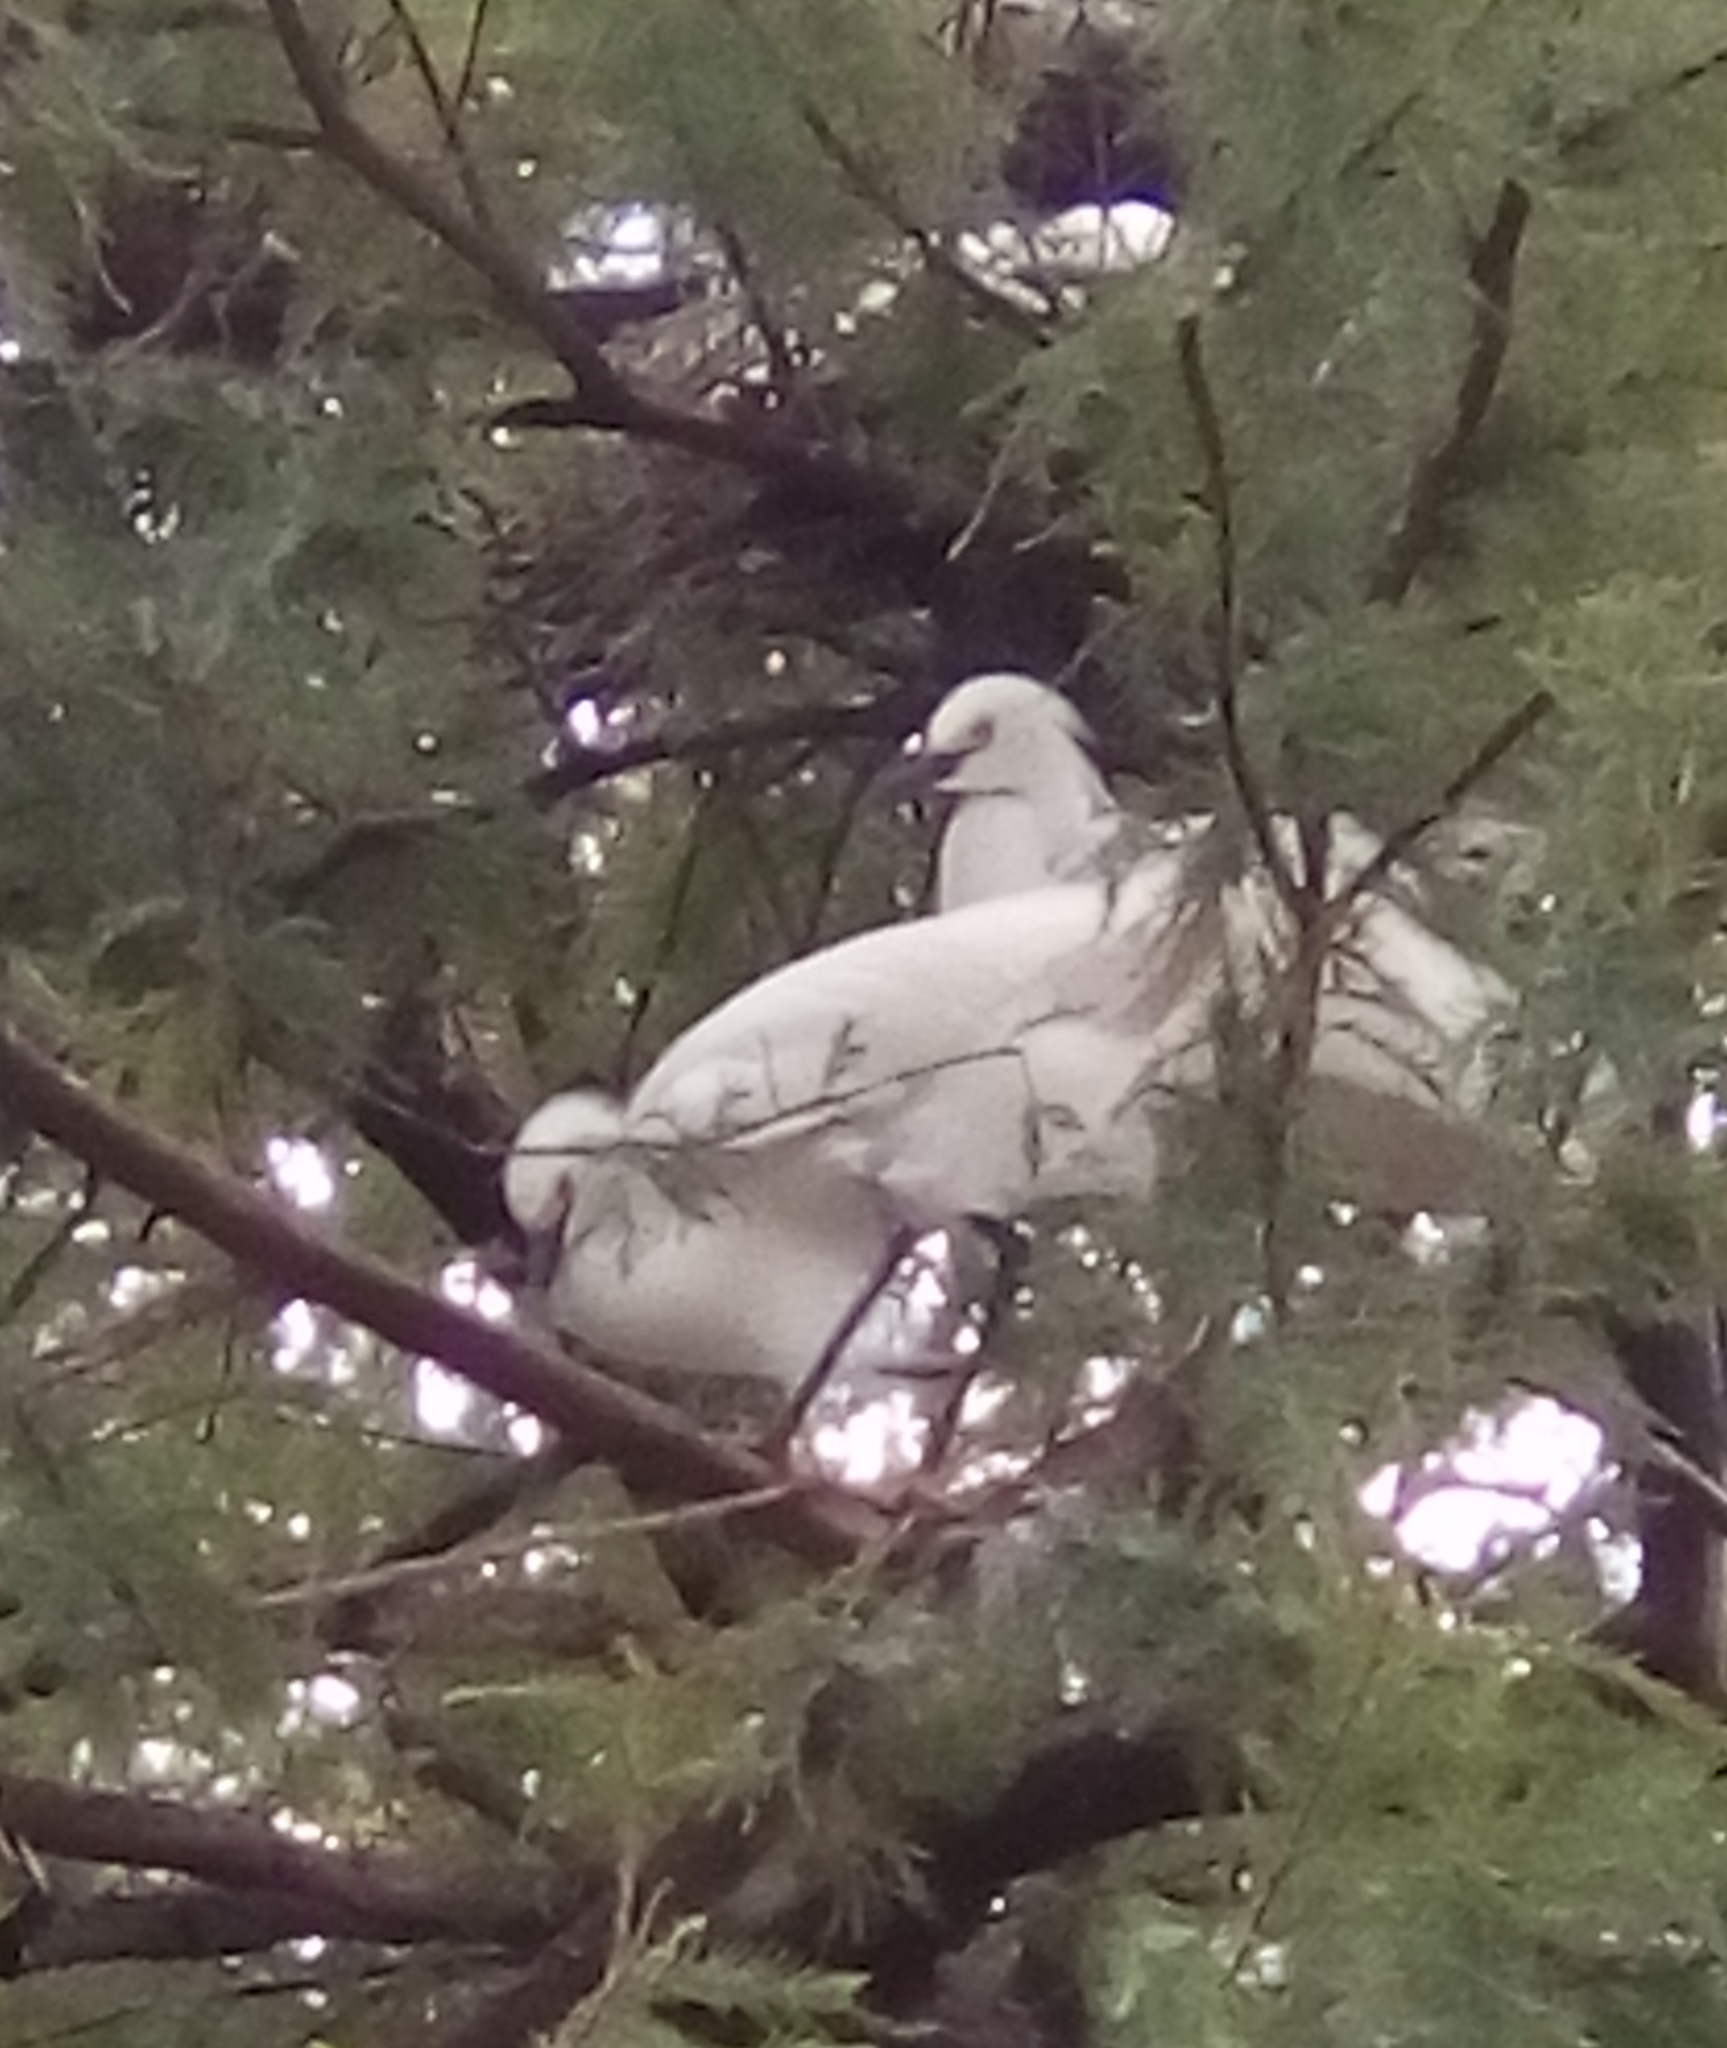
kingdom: Animalia
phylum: Chordata
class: Aves
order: Pelecaniformes
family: Ardeidae
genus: Egretta
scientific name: Egretta thula
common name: Snowy egret
